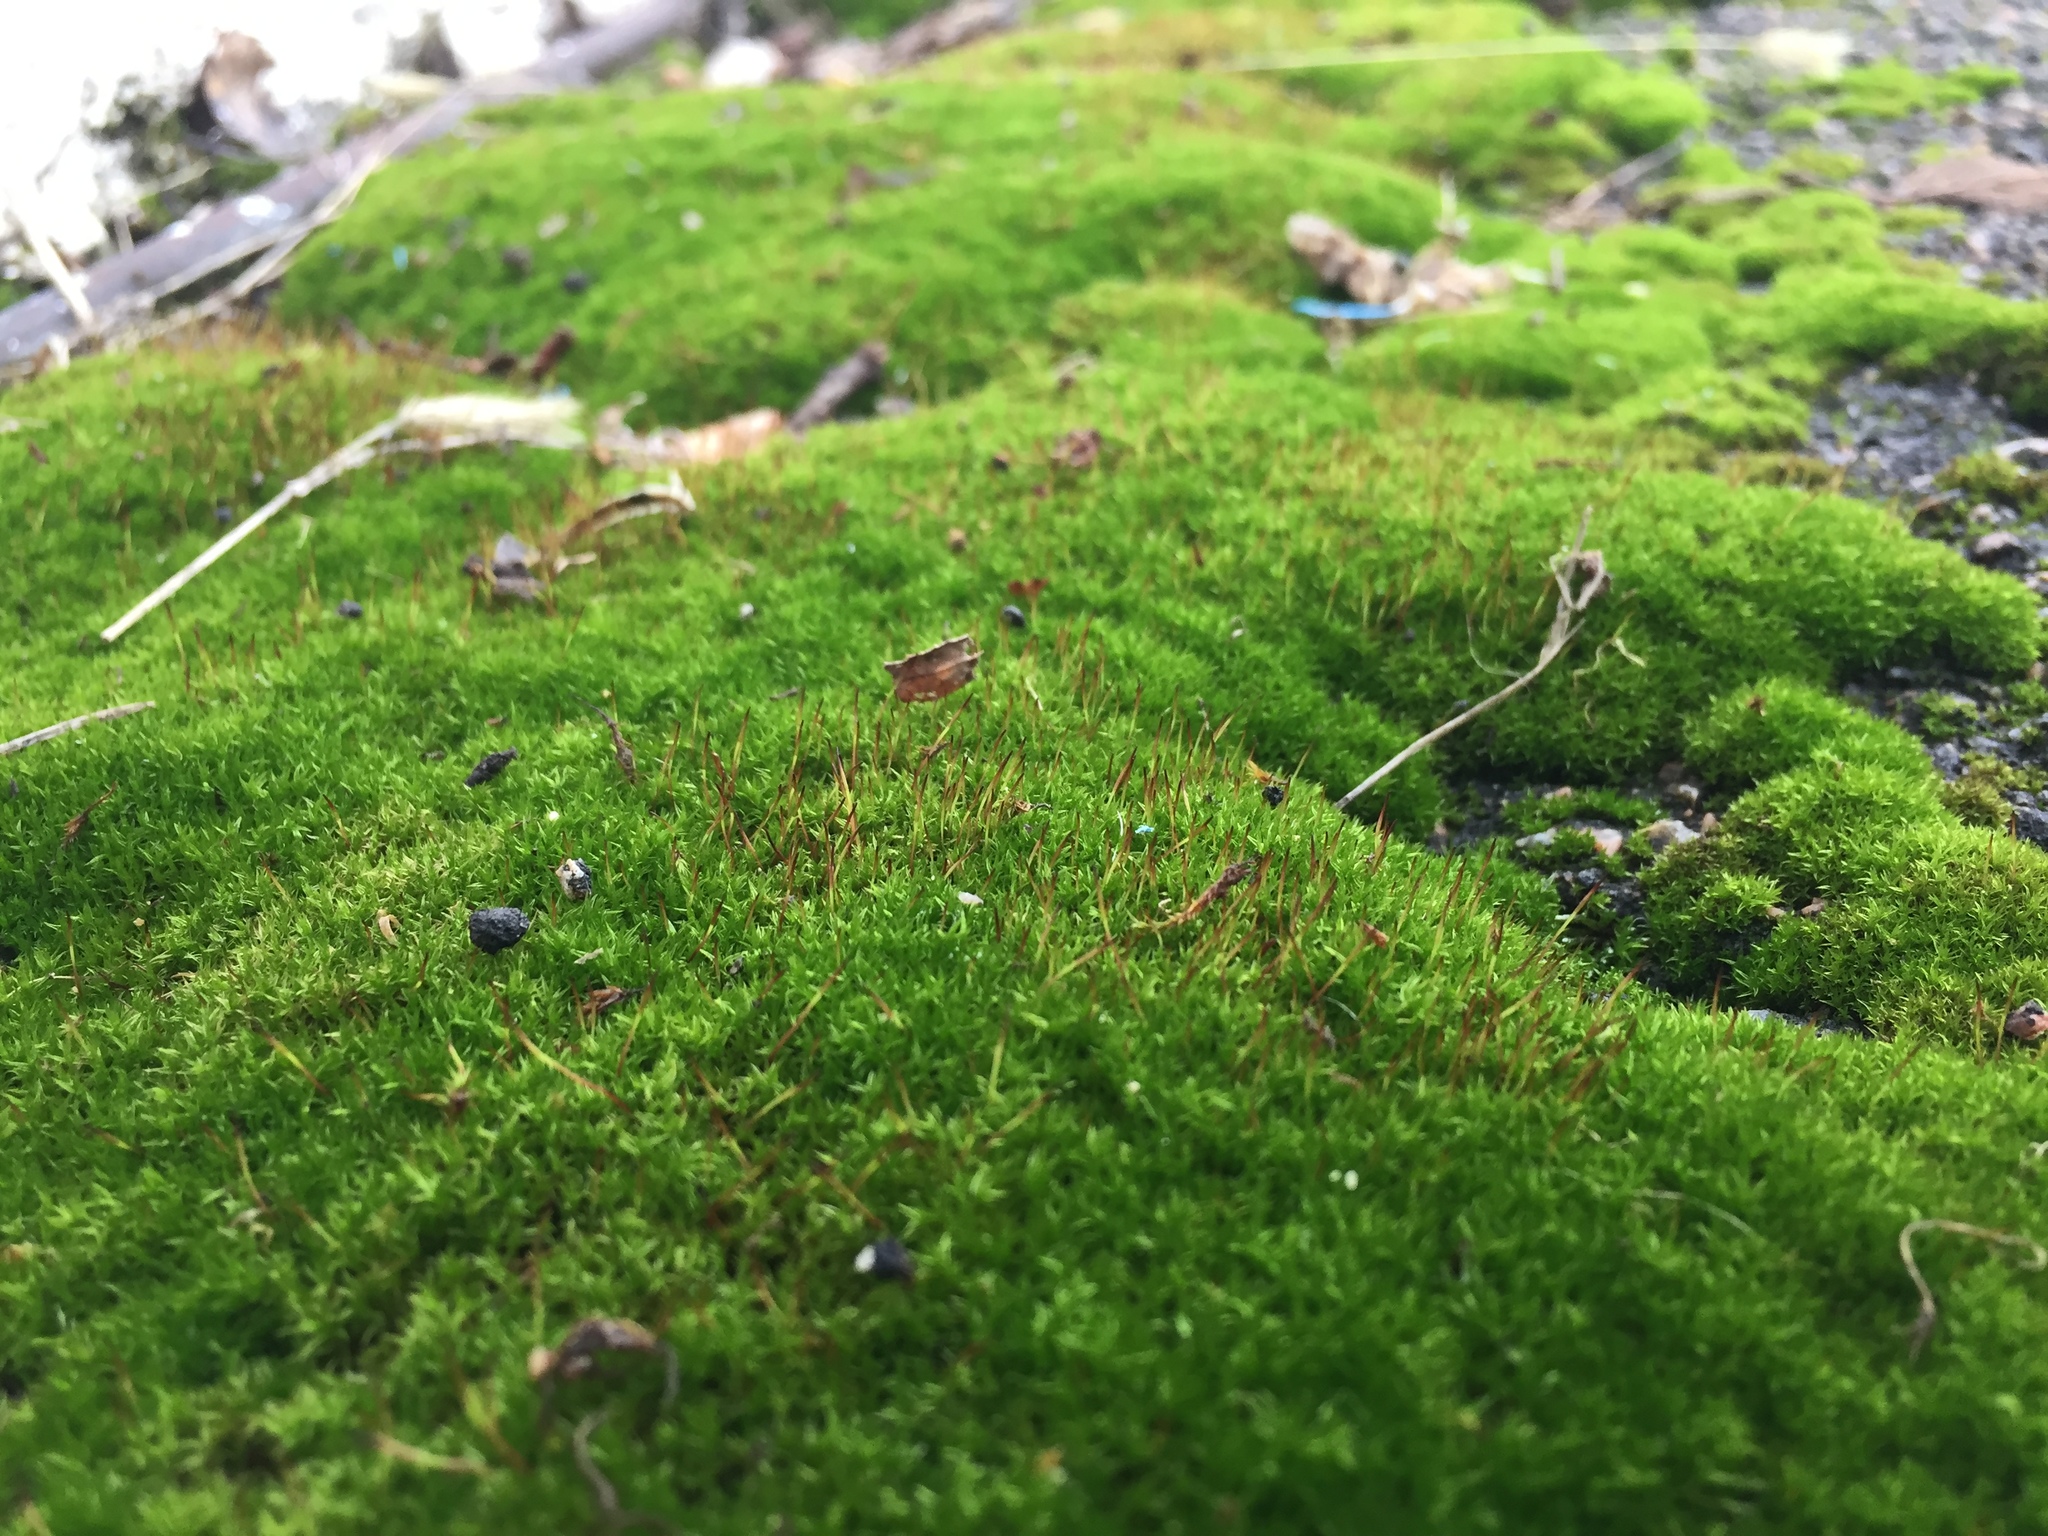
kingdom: Plantae
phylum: Bryophyta
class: Bryopsida
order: Dicranales
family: Ditrichaceae
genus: Ceratodon
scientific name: Ceratodon purpureus
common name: Redshank
